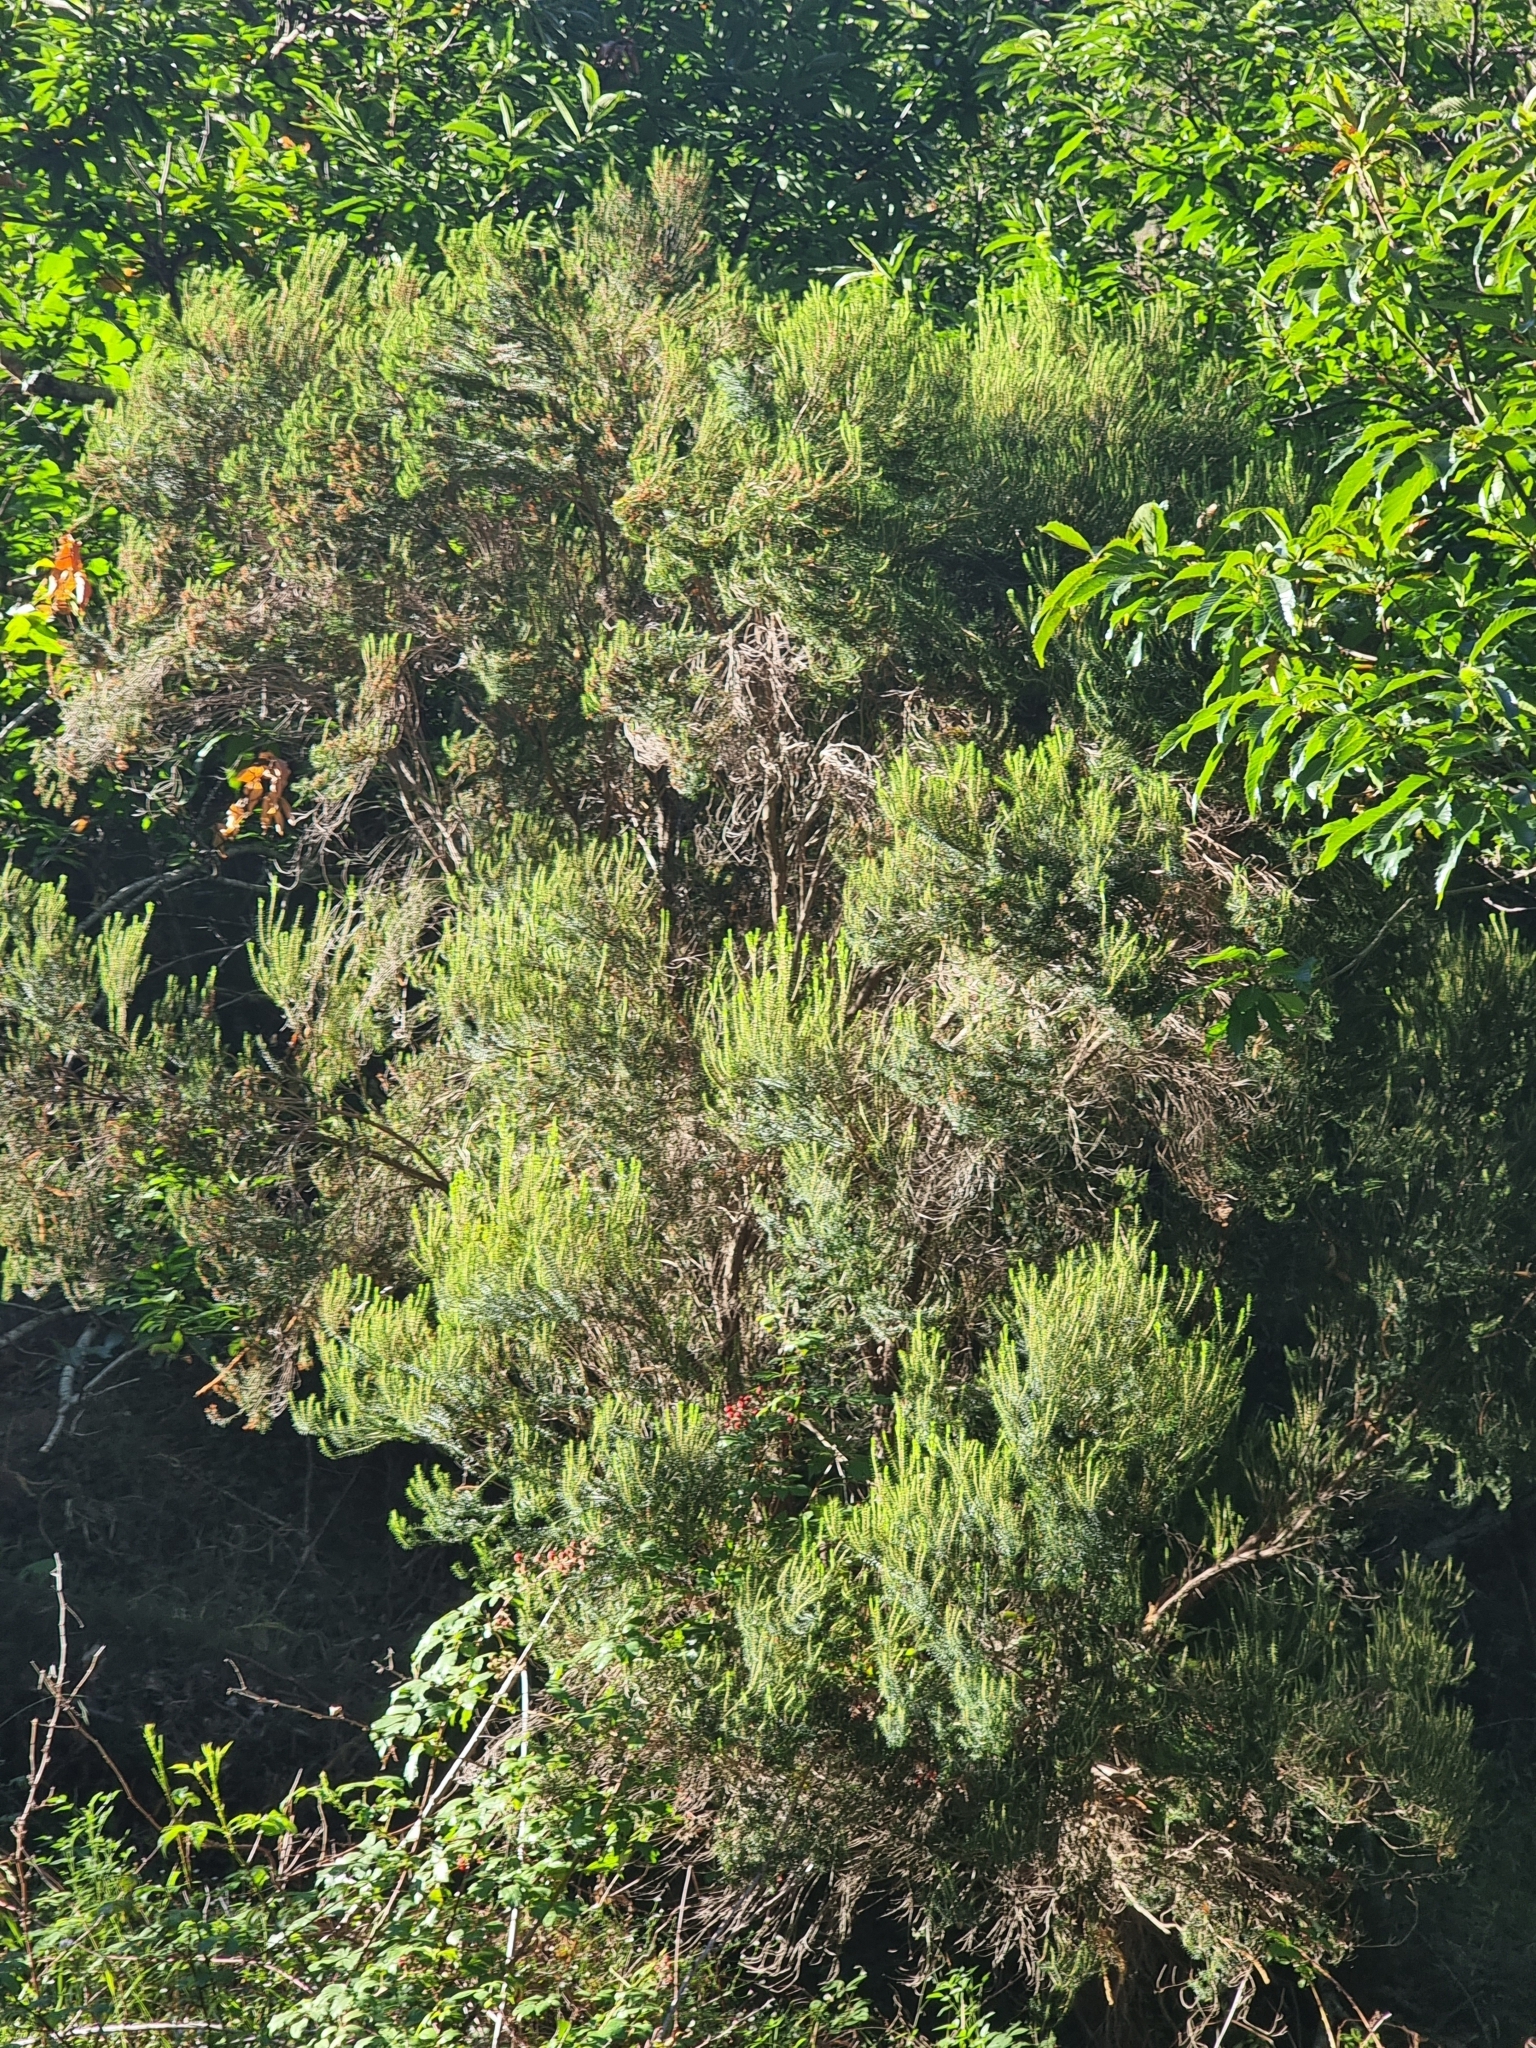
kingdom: Plantae
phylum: Tracheophyta
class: Magnoliopsida
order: Ericales
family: Ericaceae
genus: Erica
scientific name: Erica platycodon
